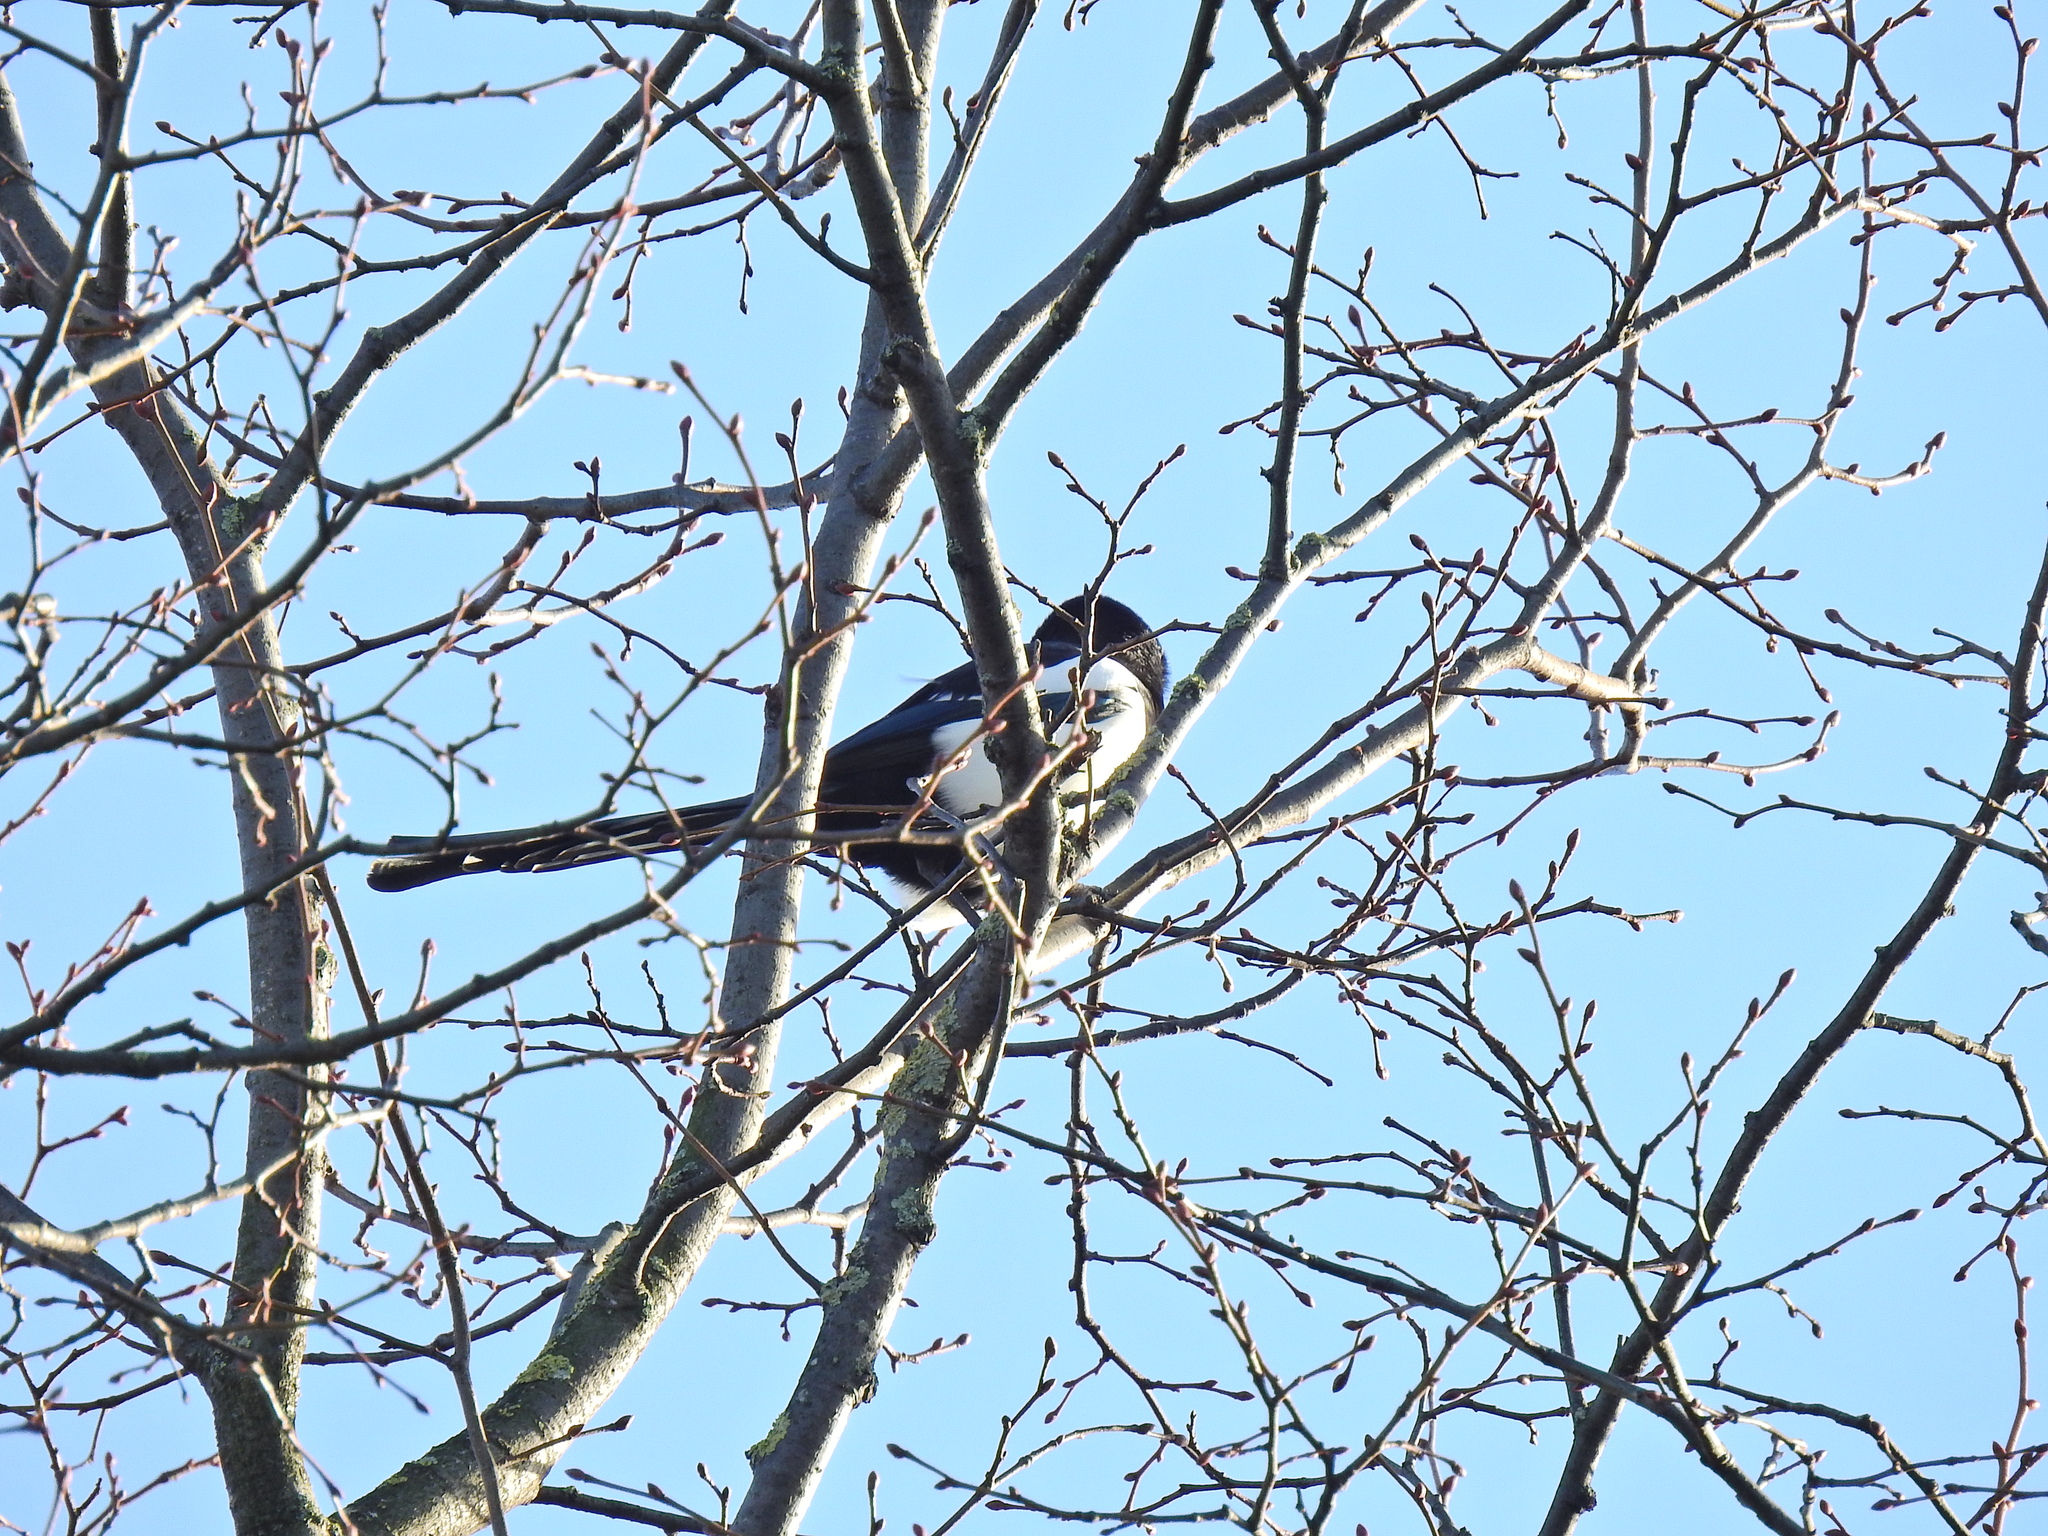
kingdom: Animalia
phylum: Chordata
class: Aves
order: Passeriformes
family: Corvidae
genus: Pica
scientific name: Pica pica
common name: Eurasian magpie
